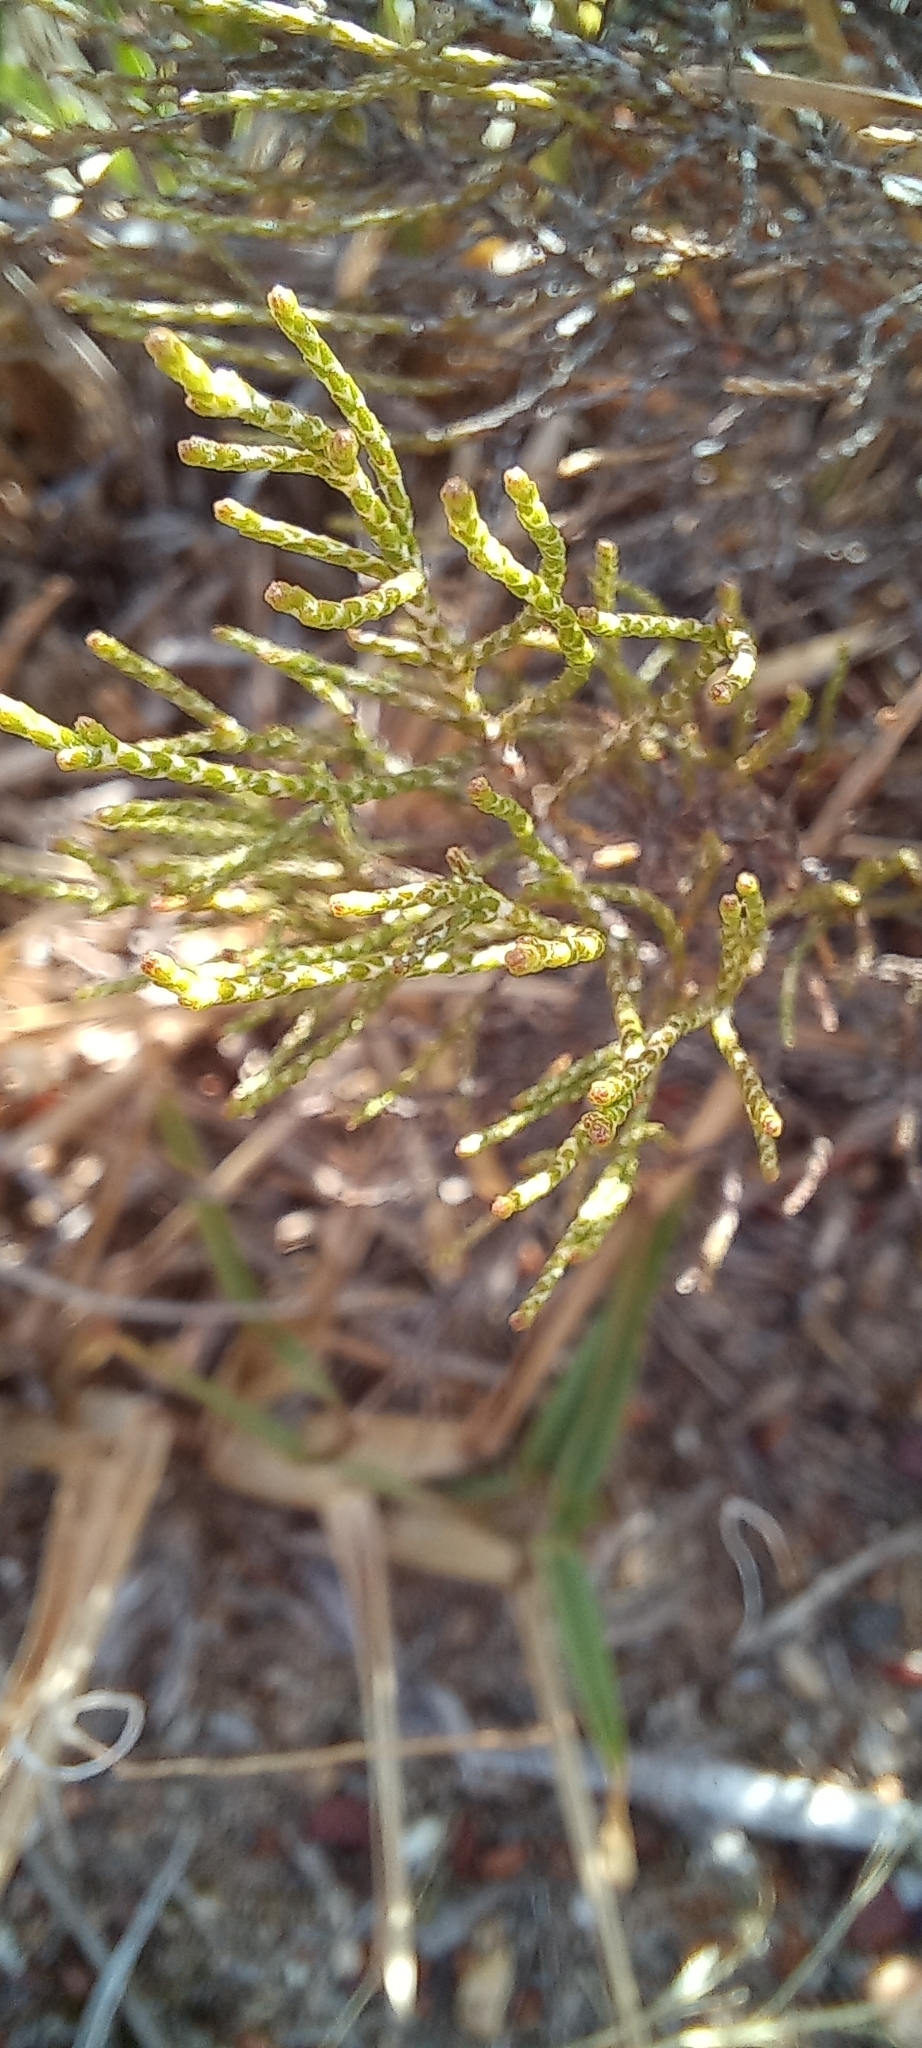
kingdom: Plantae
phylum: Tracheophyta
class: Magnoliopsida
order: Asterales
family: Asteraceae
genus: Dicerothamnus
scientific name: Dicerothamnus rhinocerotis
